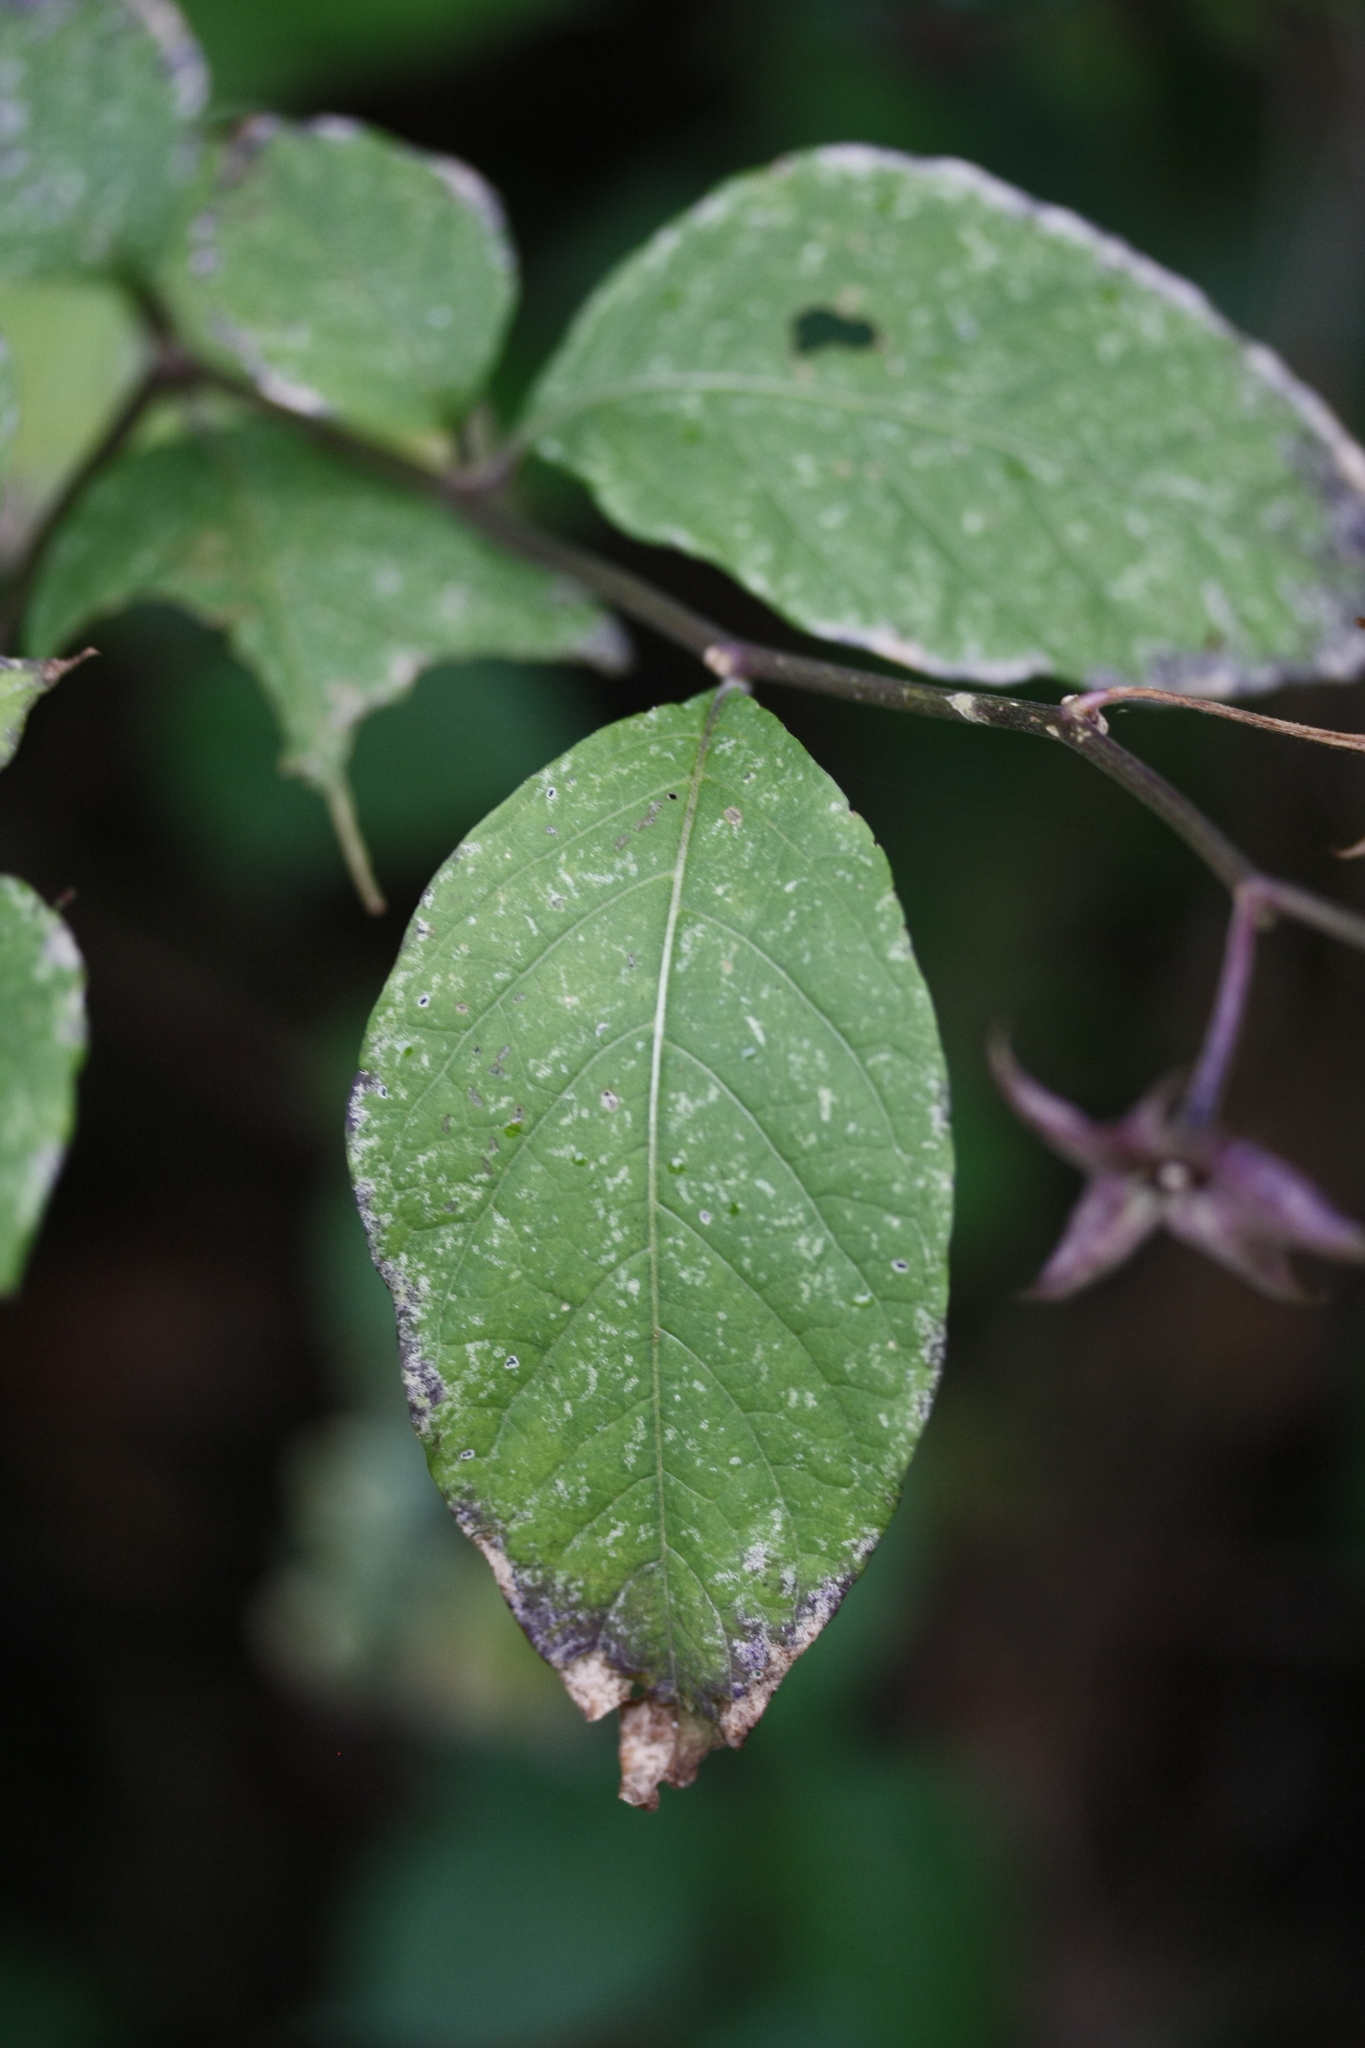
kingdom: Plantae
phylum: Tracheophyta
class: Magnoliopsida
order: Solanales
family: Solanaceae
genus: Atropa
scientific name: Atropa belladonna
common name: Deadly nightshade
